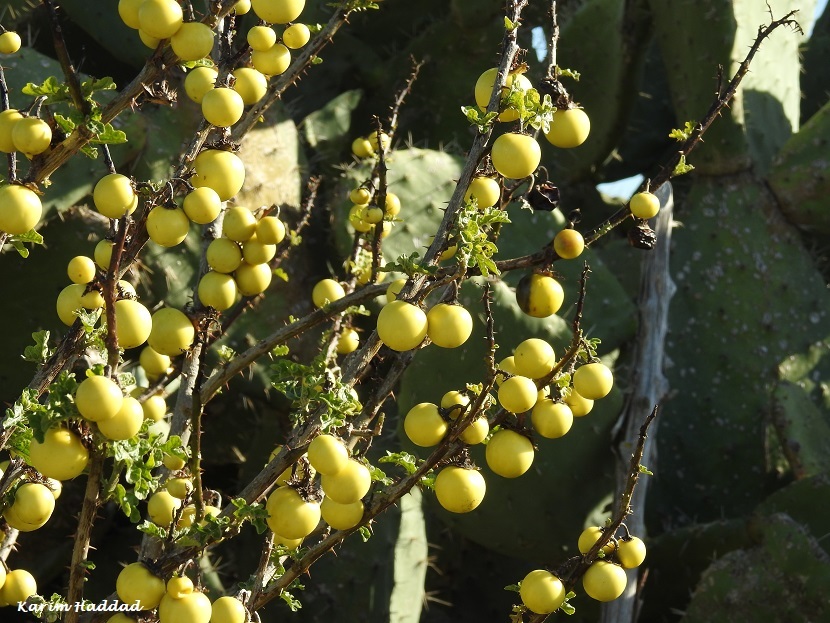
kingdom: Plantae
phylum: Tracheophyta
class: Magnoliopsida
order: Solanales
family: Solanaceae
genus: Solanum
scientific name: Solanum linnaeanum
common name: Nightshade
